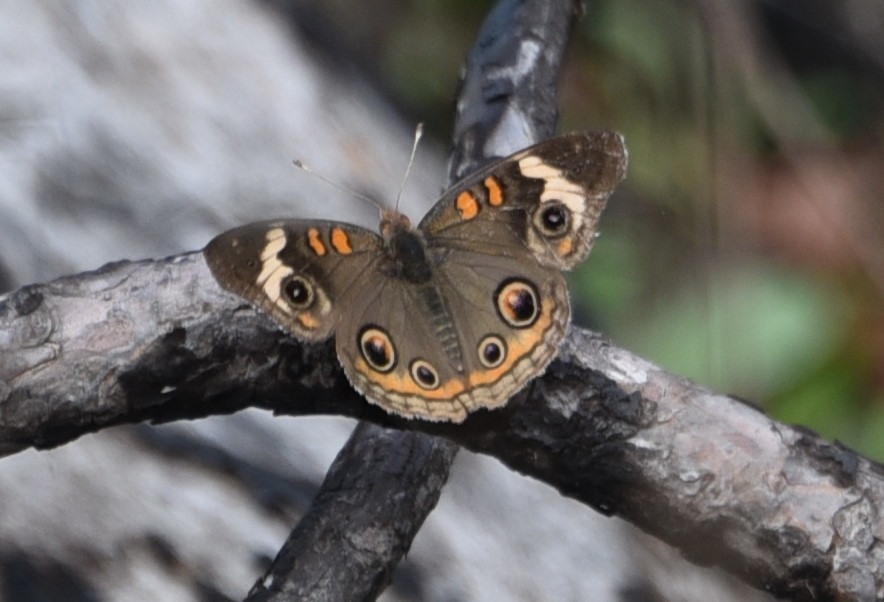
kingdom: Animalia
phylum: Arthropoda
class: Insecta
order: Lepidoptera
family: Nymphalidae
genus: Junonia
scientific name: Junonia coenia
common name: Common buckeye
